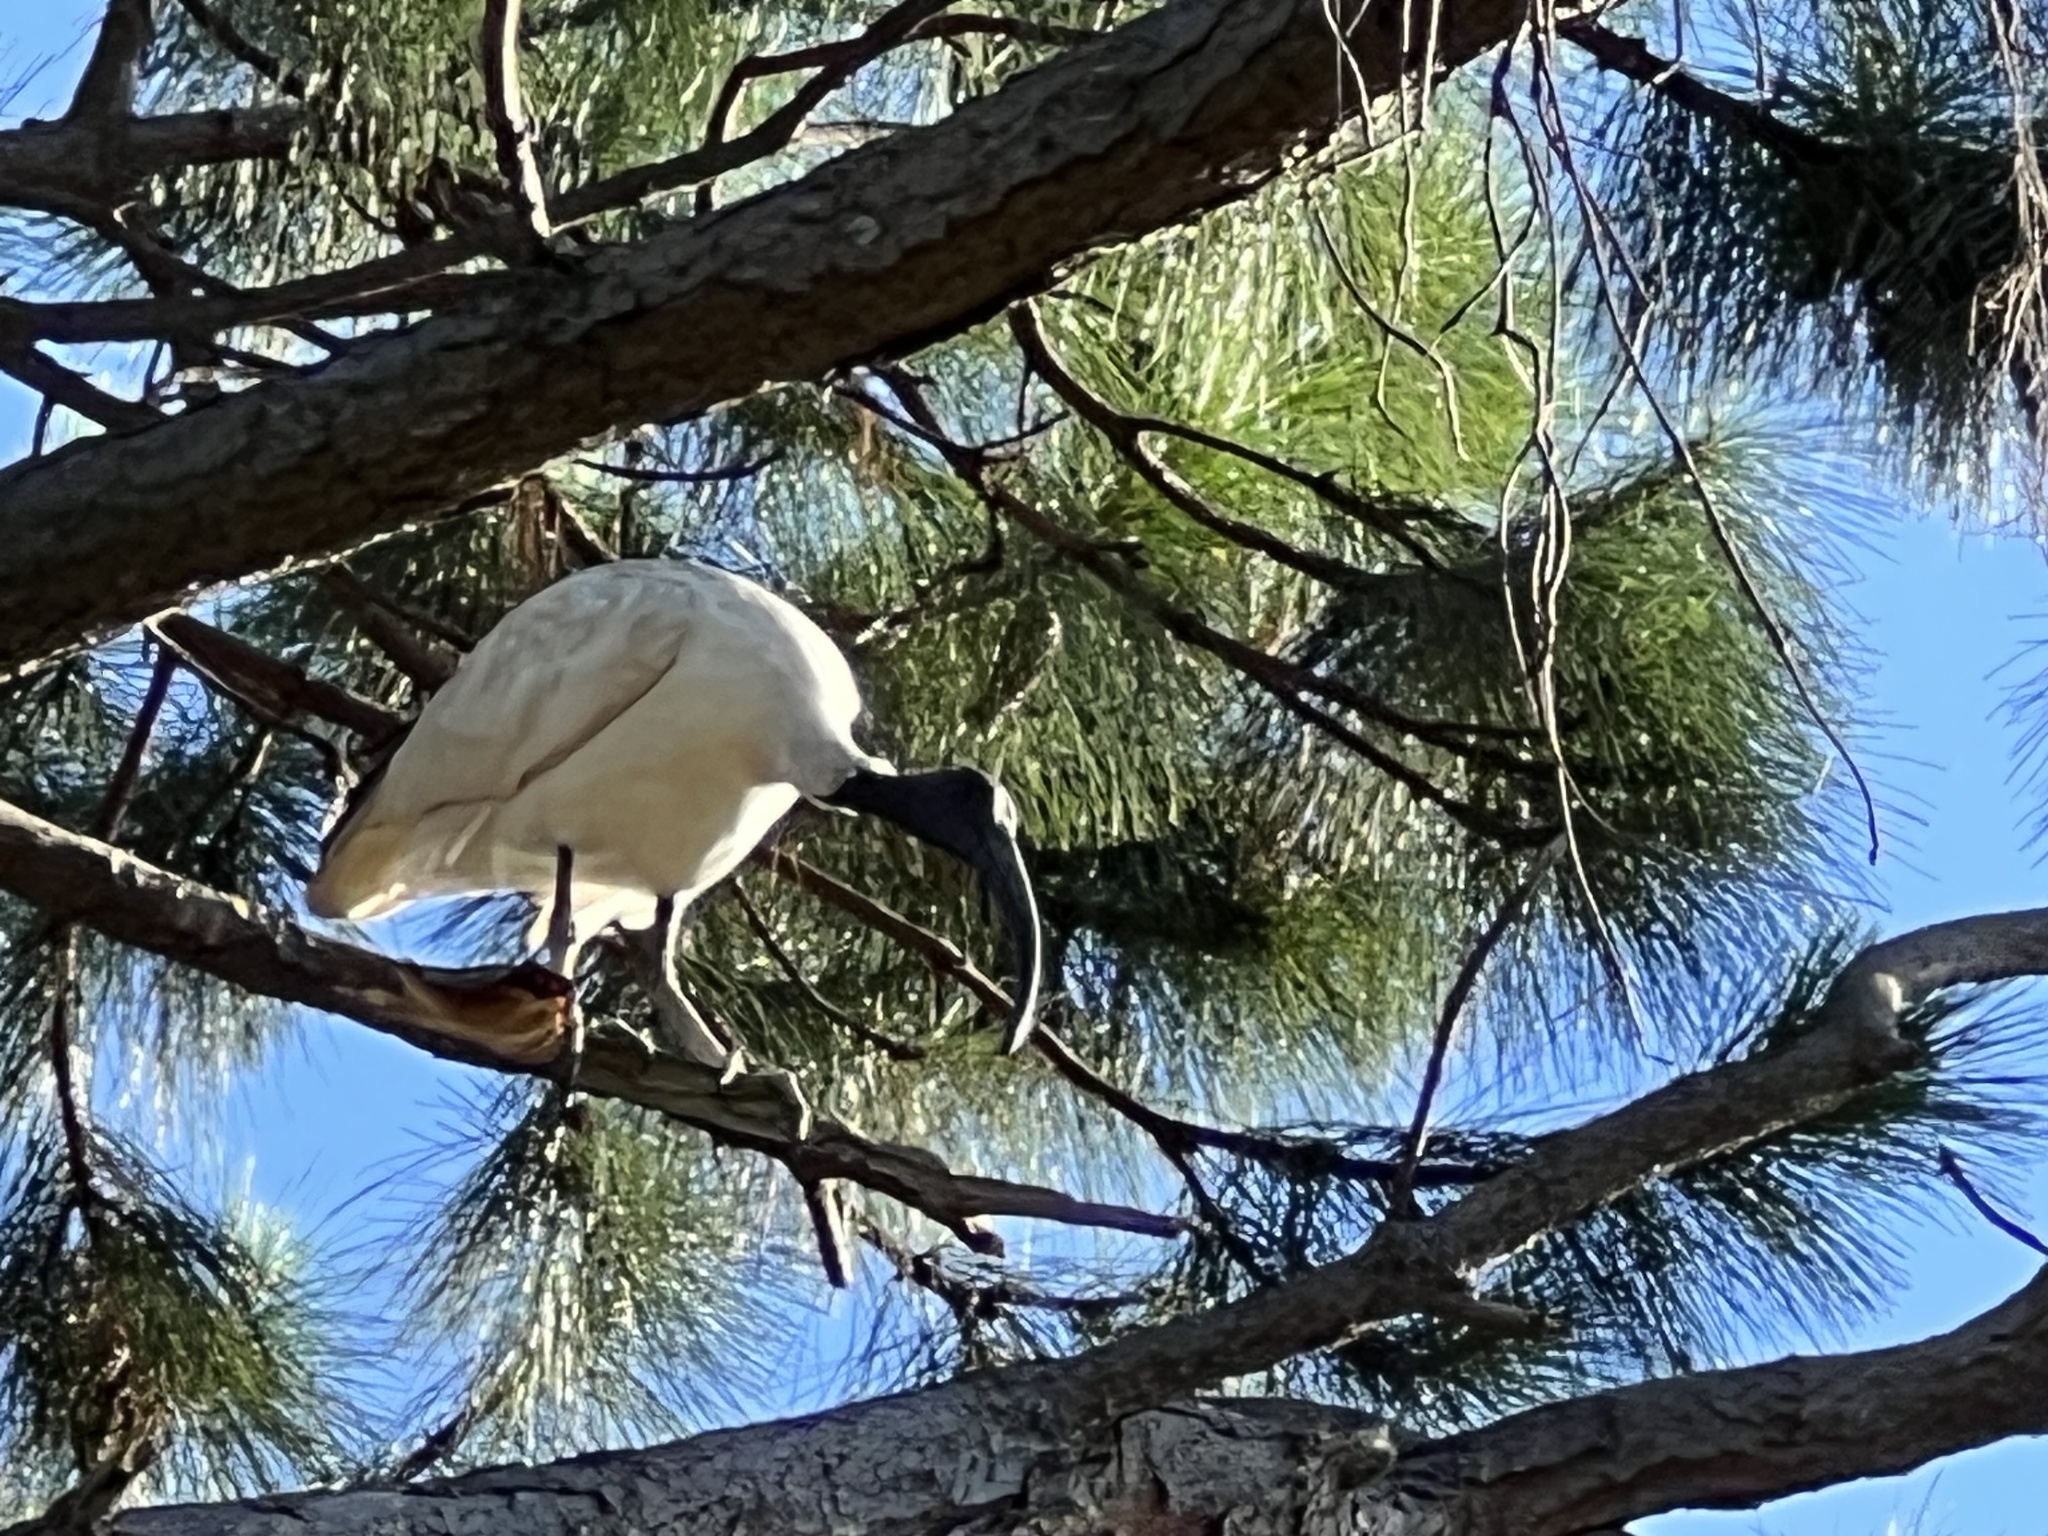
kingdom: Animalia
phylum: Chordata
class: Aves
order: Pelecaniformes
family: Threskiornithidae
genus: Threskiornis
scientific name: Threskiornis molucca
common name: Australian white ibis
